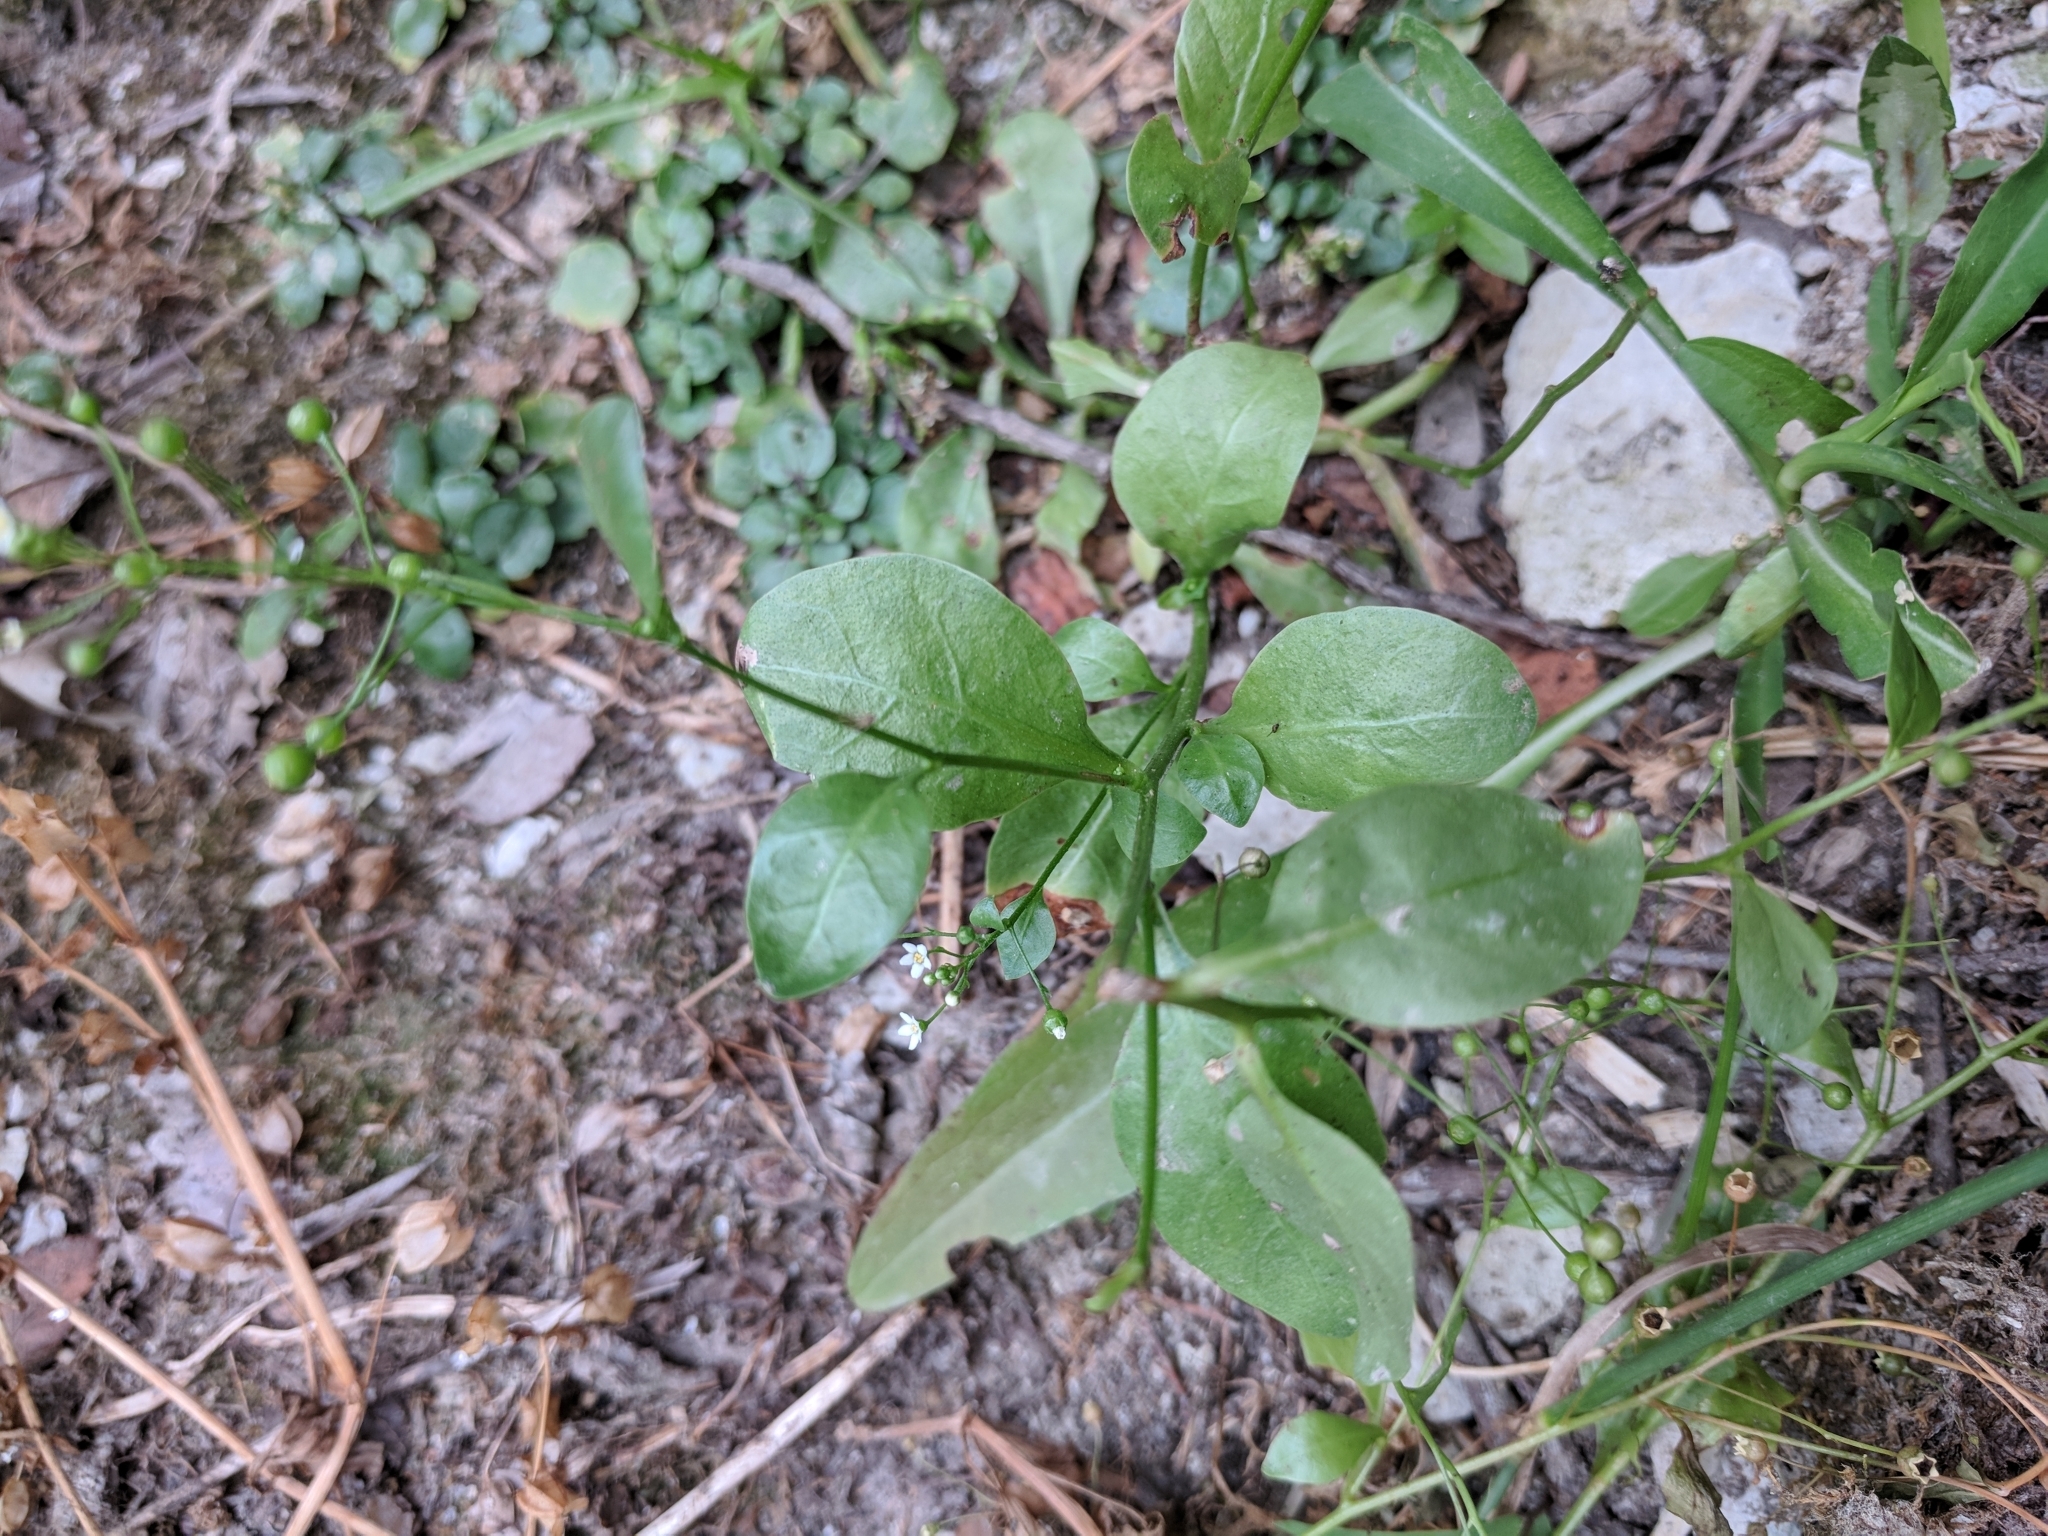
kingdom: Plantae
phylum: Tracheophyta
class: Magnoliopsida
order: Ericales
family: Primulaceae
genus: Samolus
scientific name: Samolus parviflorus
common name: False water pimpernel
